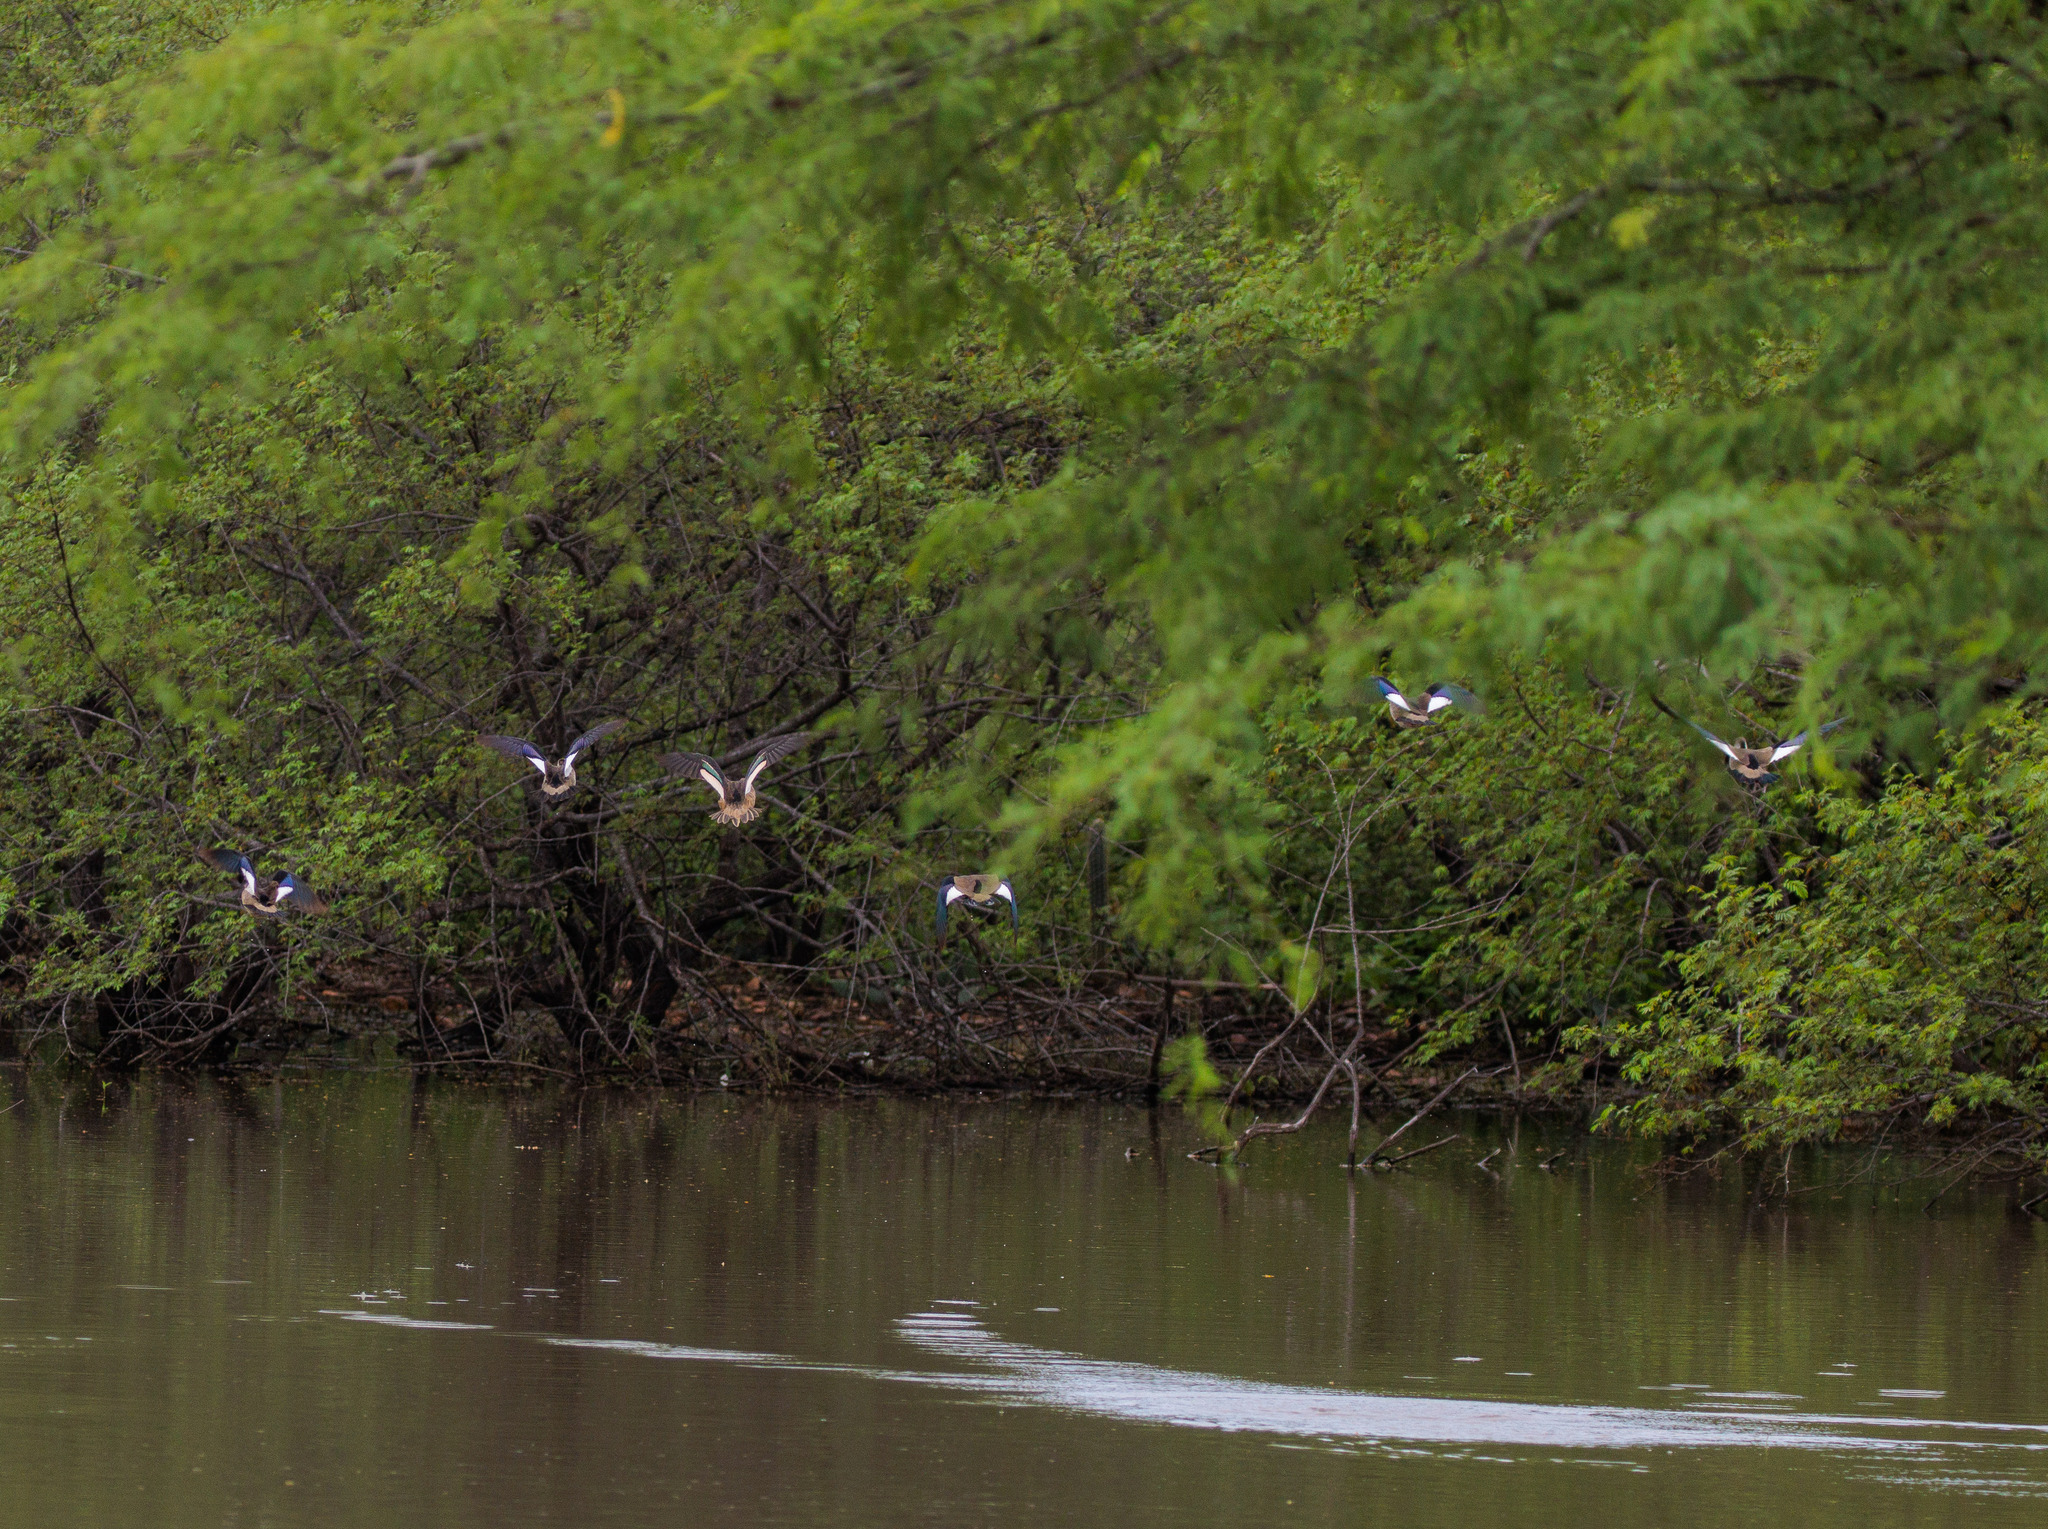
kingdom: Animalia
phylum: Chordata
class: Aves
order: Anseriformes
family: Anatidae
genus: Amazonetta
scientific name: Amazonetta brasiliensis
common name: Brazilian teal
